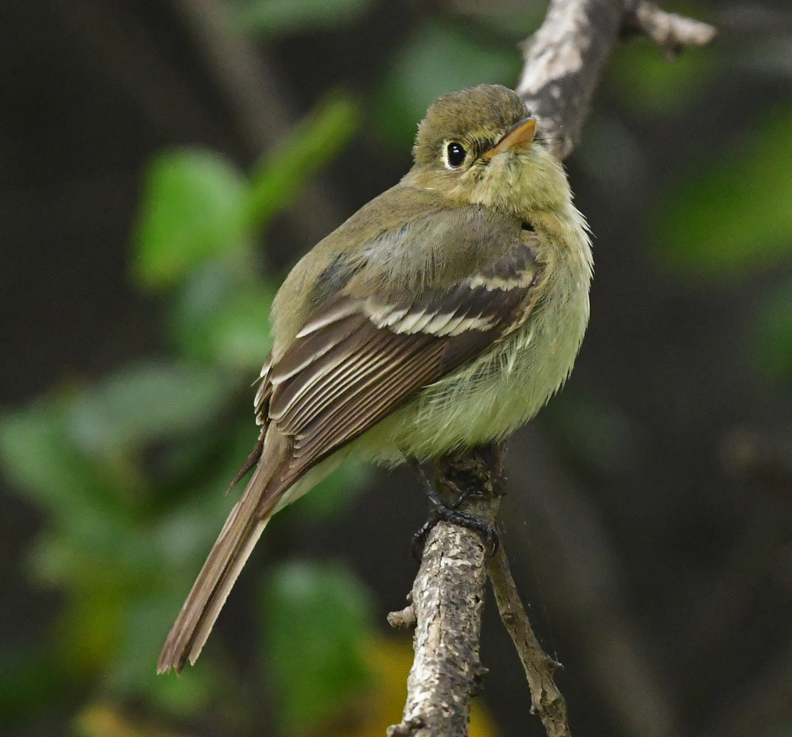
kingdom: Animalia
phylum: Chordata
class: Aves
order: Passeriformes
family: Tyrannidae
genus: Empidonax
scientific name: Empidonax difficilis
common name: Pacific-slope flycatcher
